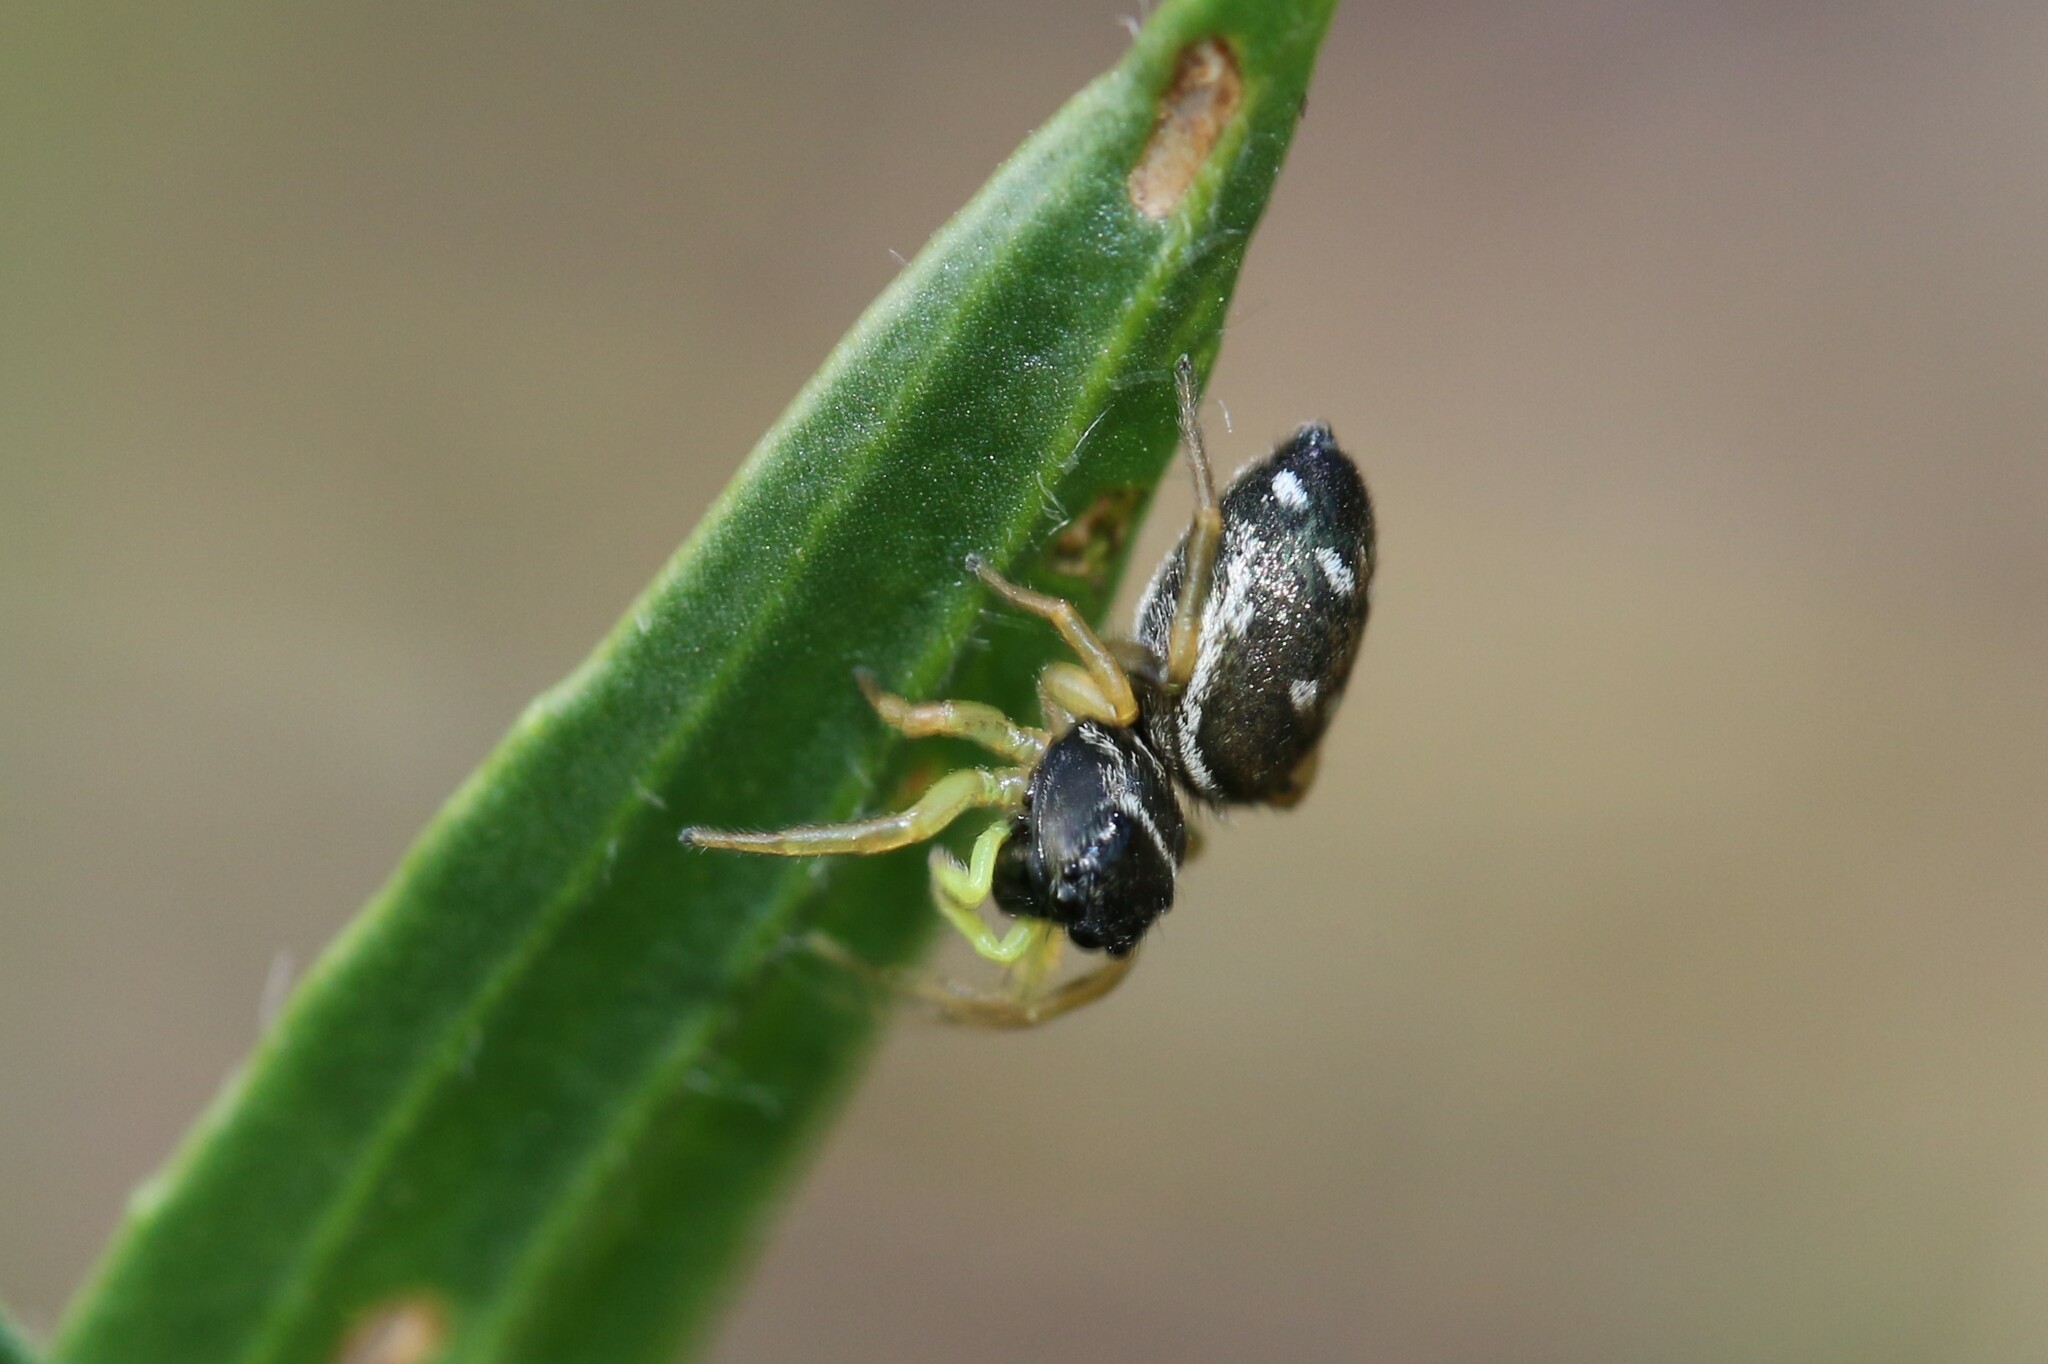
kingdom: Animalia
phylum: Arthropoda
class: Arachnida
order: Araneae
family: Salticidae
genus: Heliophanus
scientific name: Heliophanus cupreus
